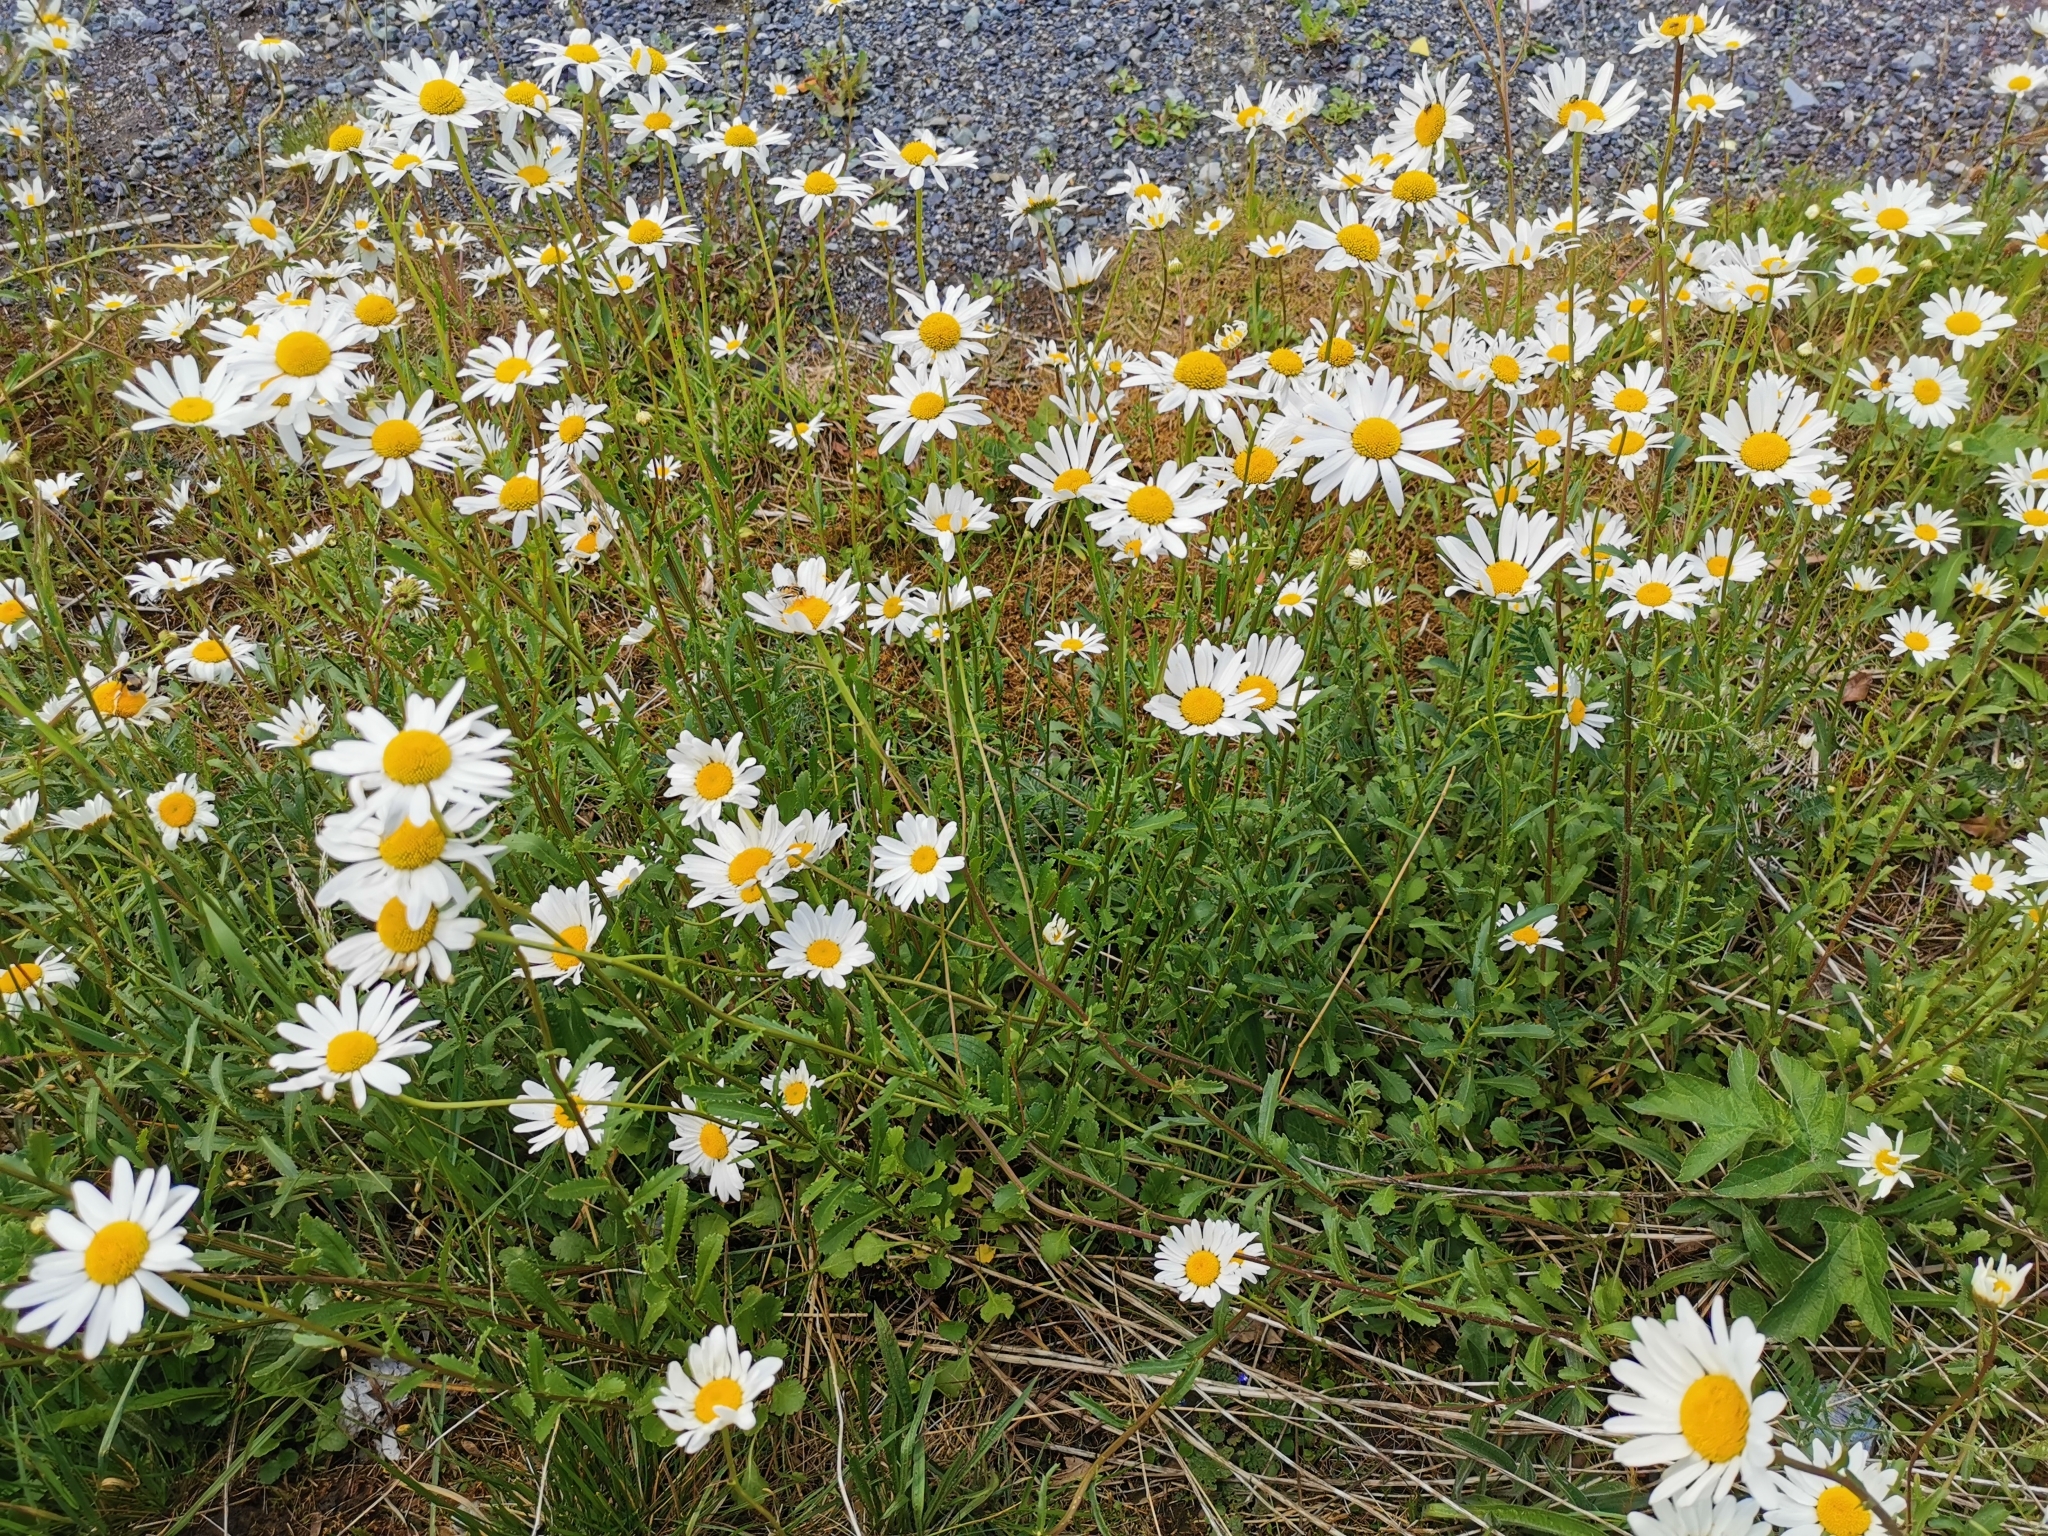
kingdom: Plantae
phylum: Tracheophyta
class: Magnoliopsida
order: Asterales
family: Asteraceae
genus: Leucanthemum
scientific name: Leucanthemum vulgare
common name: Oxeye daisy
